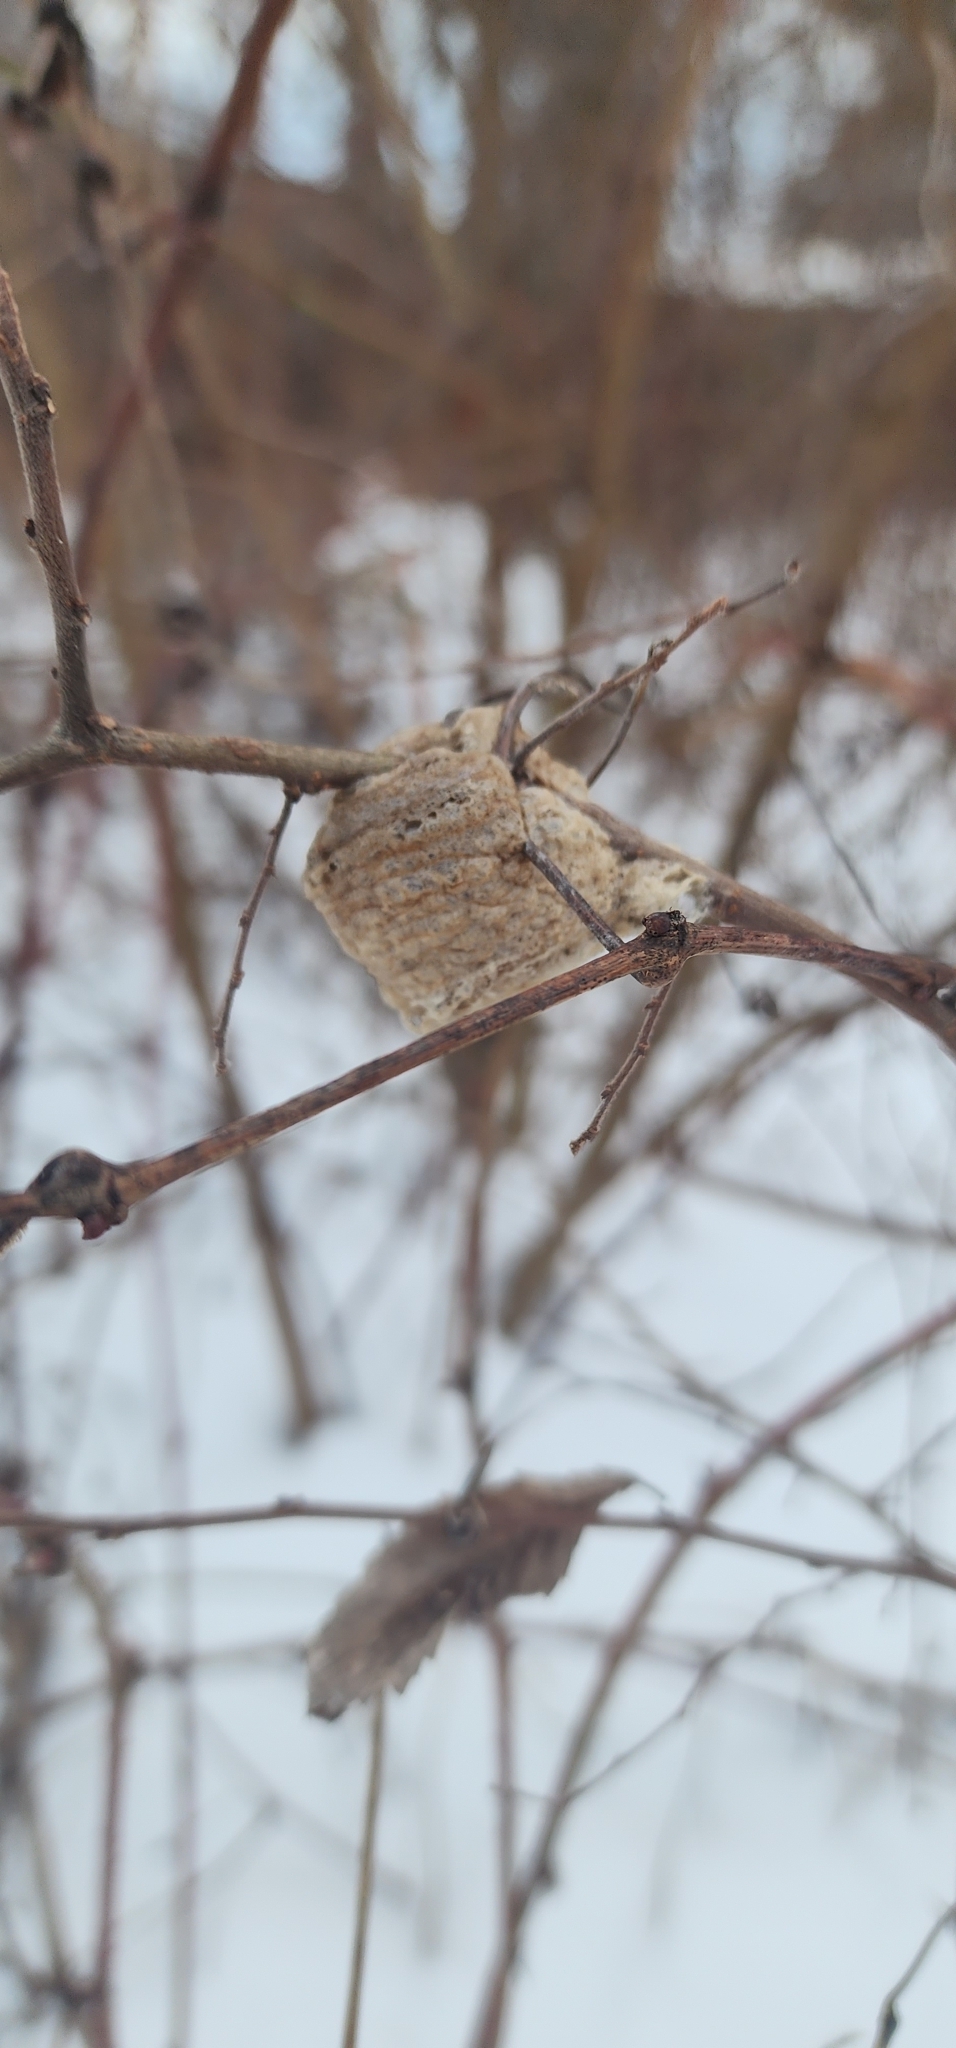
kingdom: Animalia
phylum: Arthropoda
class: Insecta
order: Mantodea
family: Mantidae
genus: Tenodera
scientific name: Tenodera sinensis
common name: Chinese mantis
